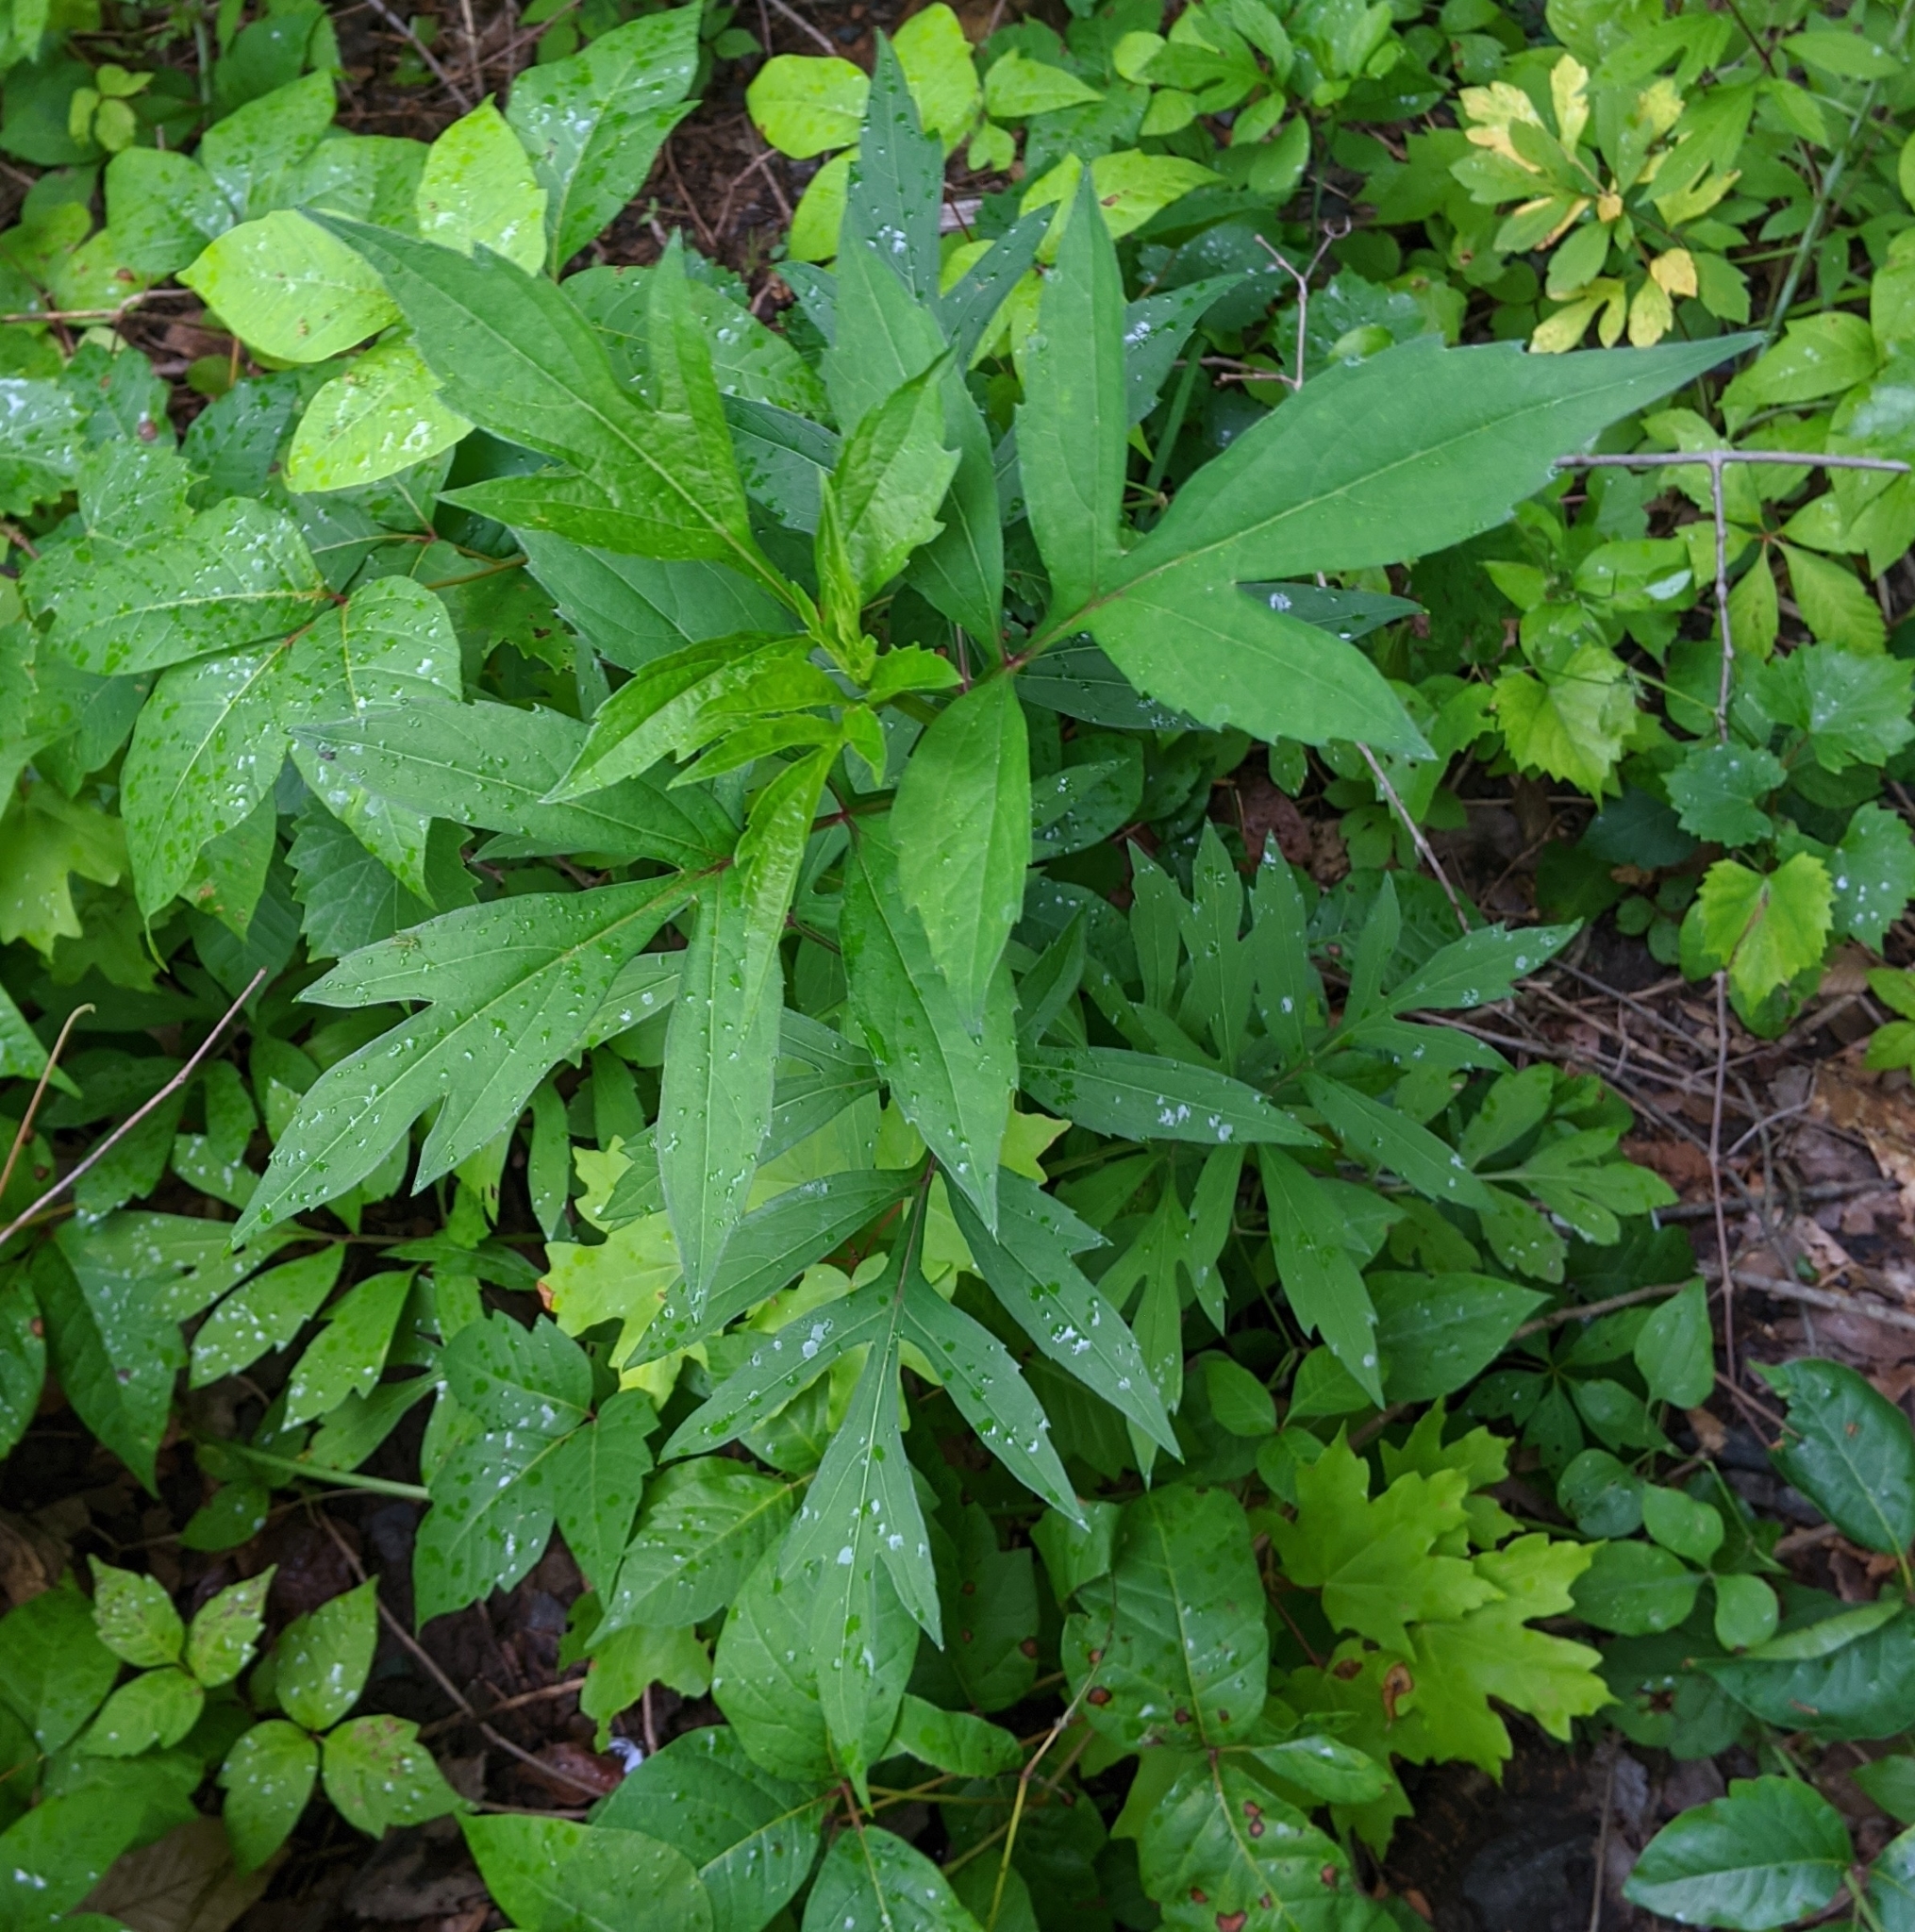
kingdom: Plantae
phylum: Tracheophyta
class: Magnoliopsida
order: Asterales
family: Asteraceae
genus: Rudbeckia
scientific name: Rudbeckia laciniata
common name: Coneflower
